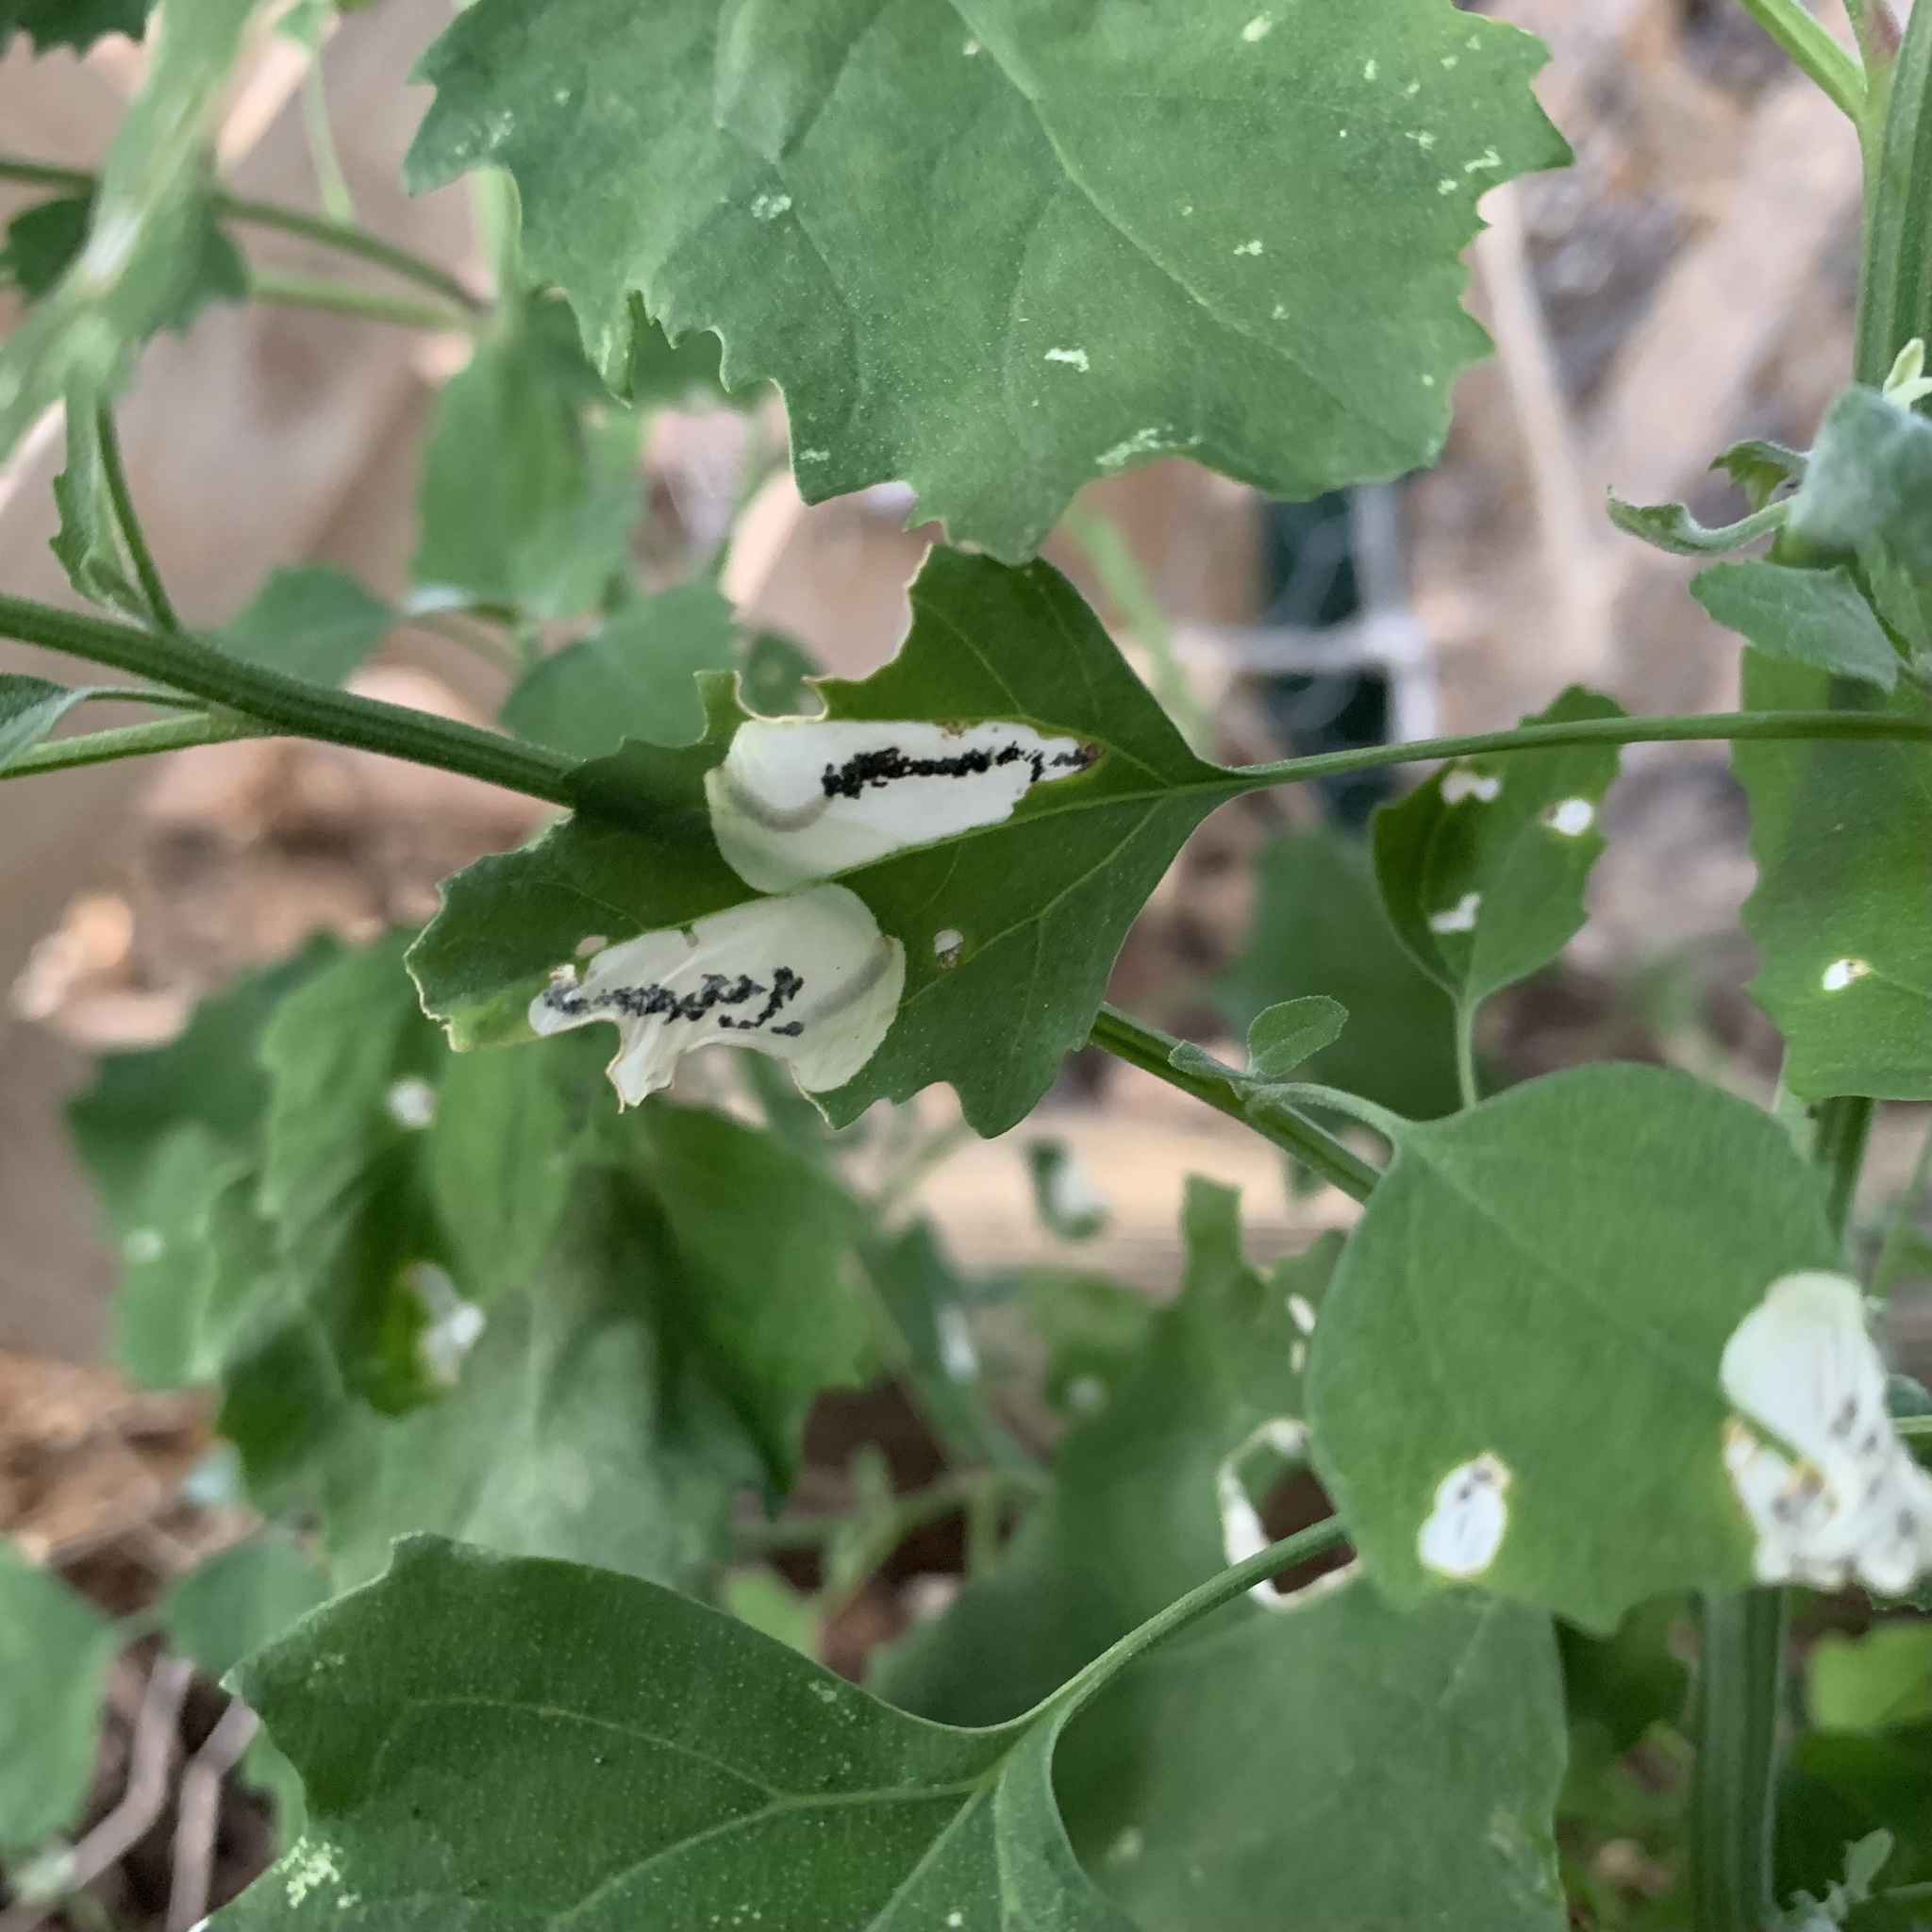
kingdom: Animalia
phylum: Arthropoda
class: Insecta
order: Lepidoptera
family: Gelechiidae
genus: Chrysoesthia
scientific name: Chrysoesthia sexguttella
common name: Moth
